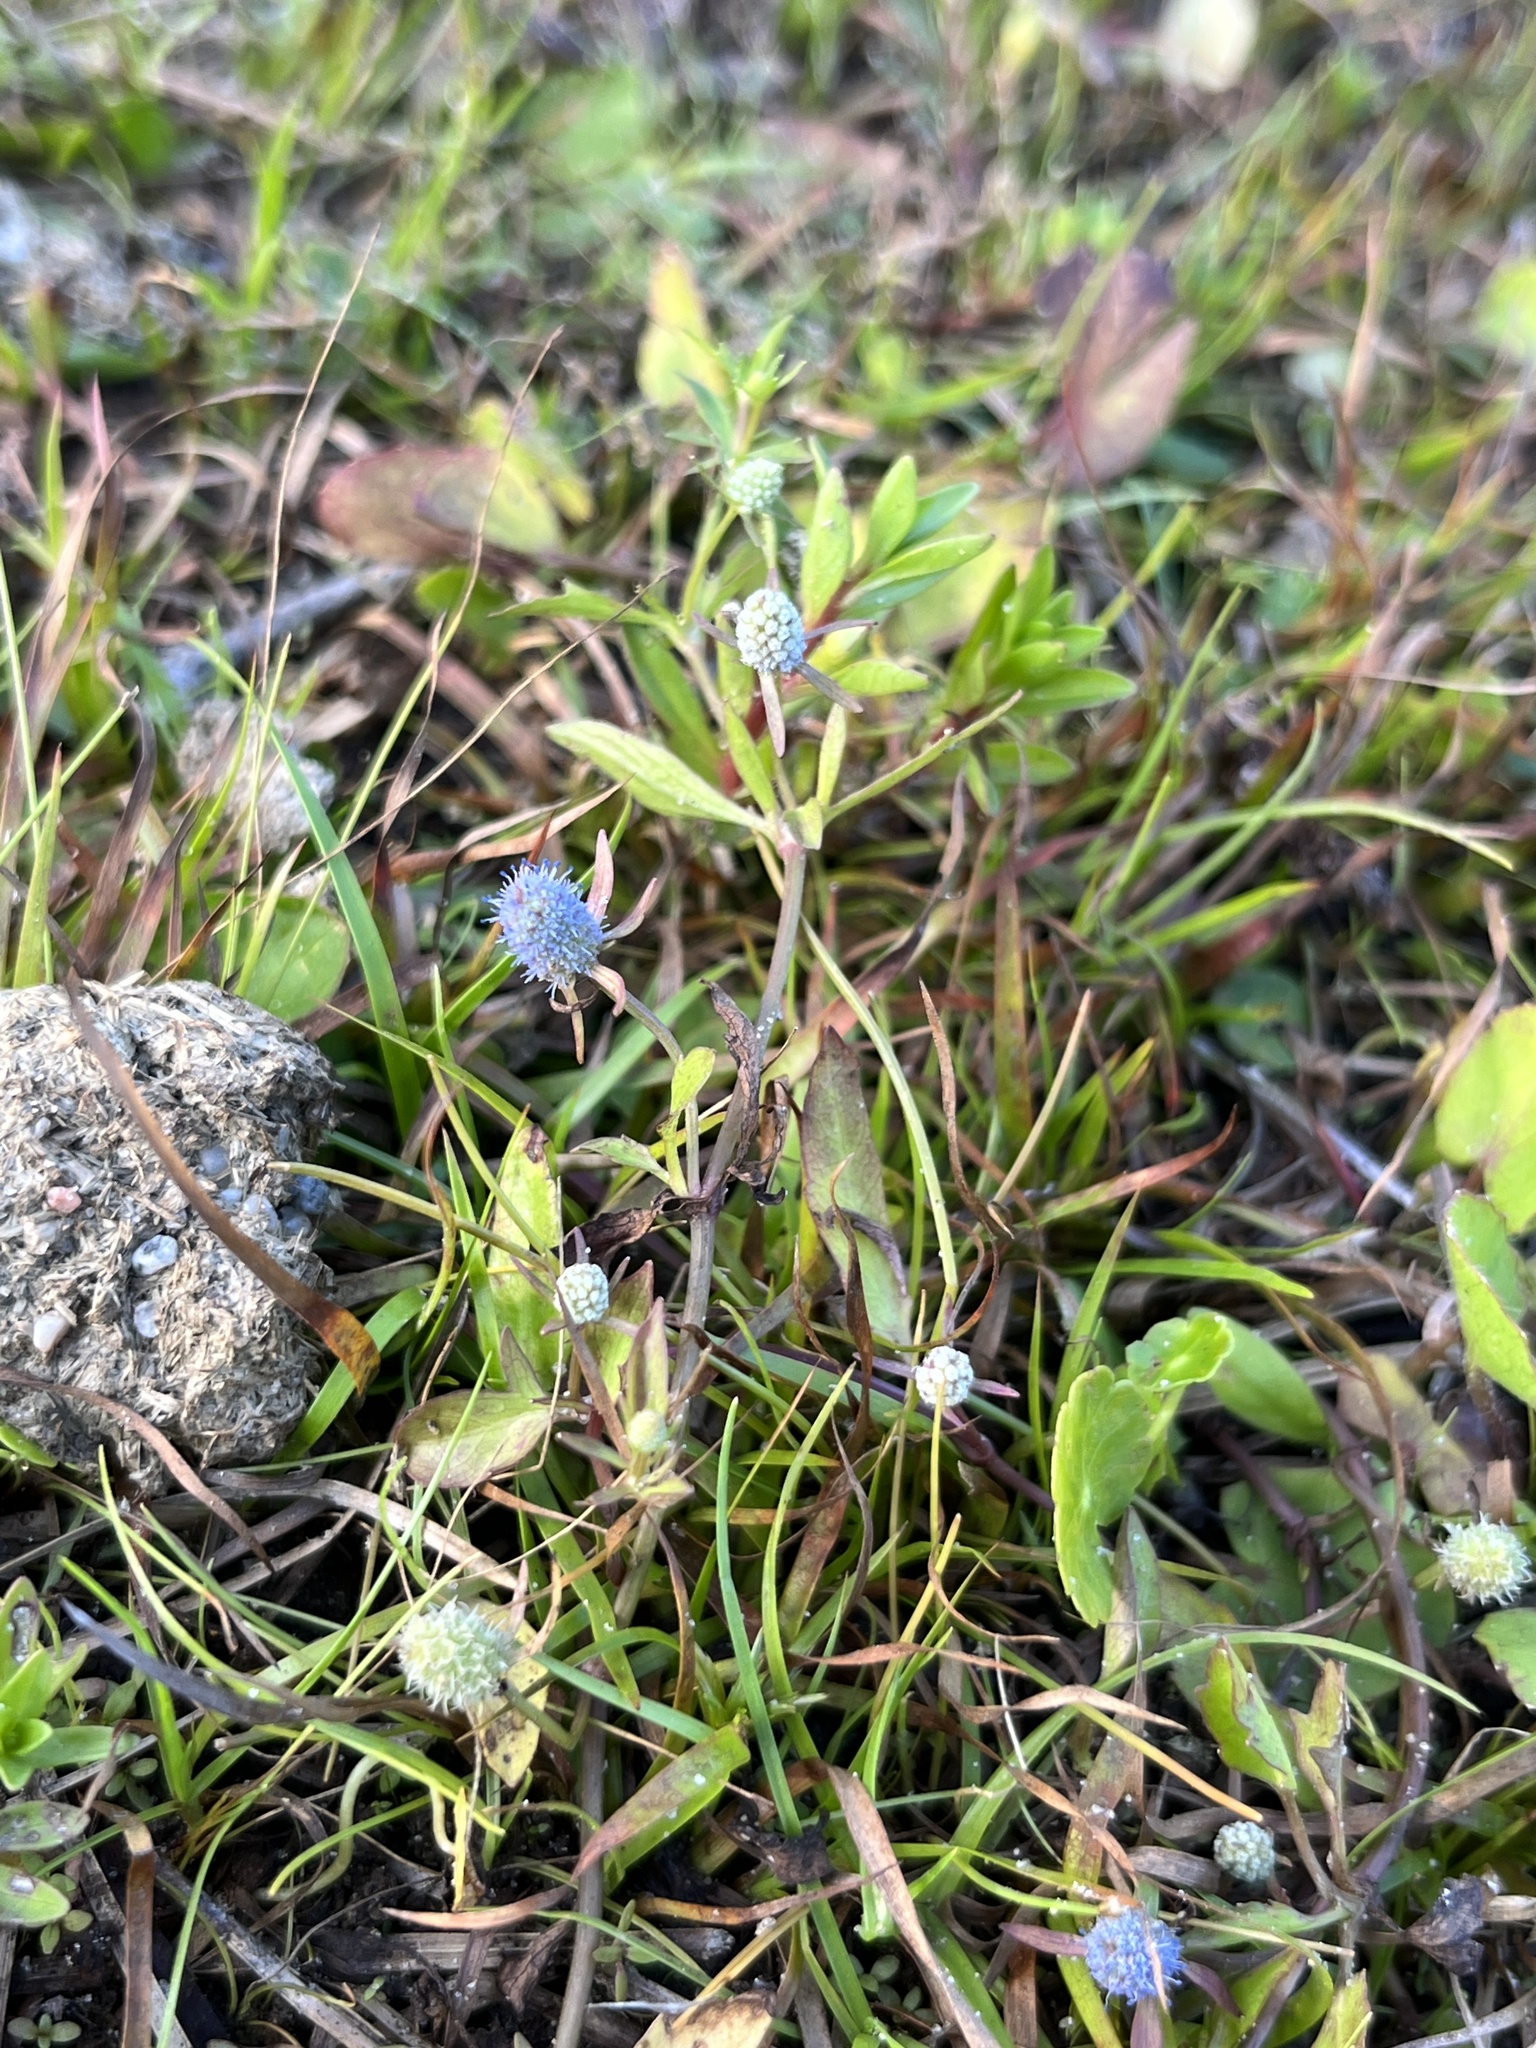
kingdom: Plantae
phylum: Tracheophyta
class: Magnoliopsida
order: Apiales
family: Apiaceae
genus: Eryngium
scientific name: Eryngium prostratum
